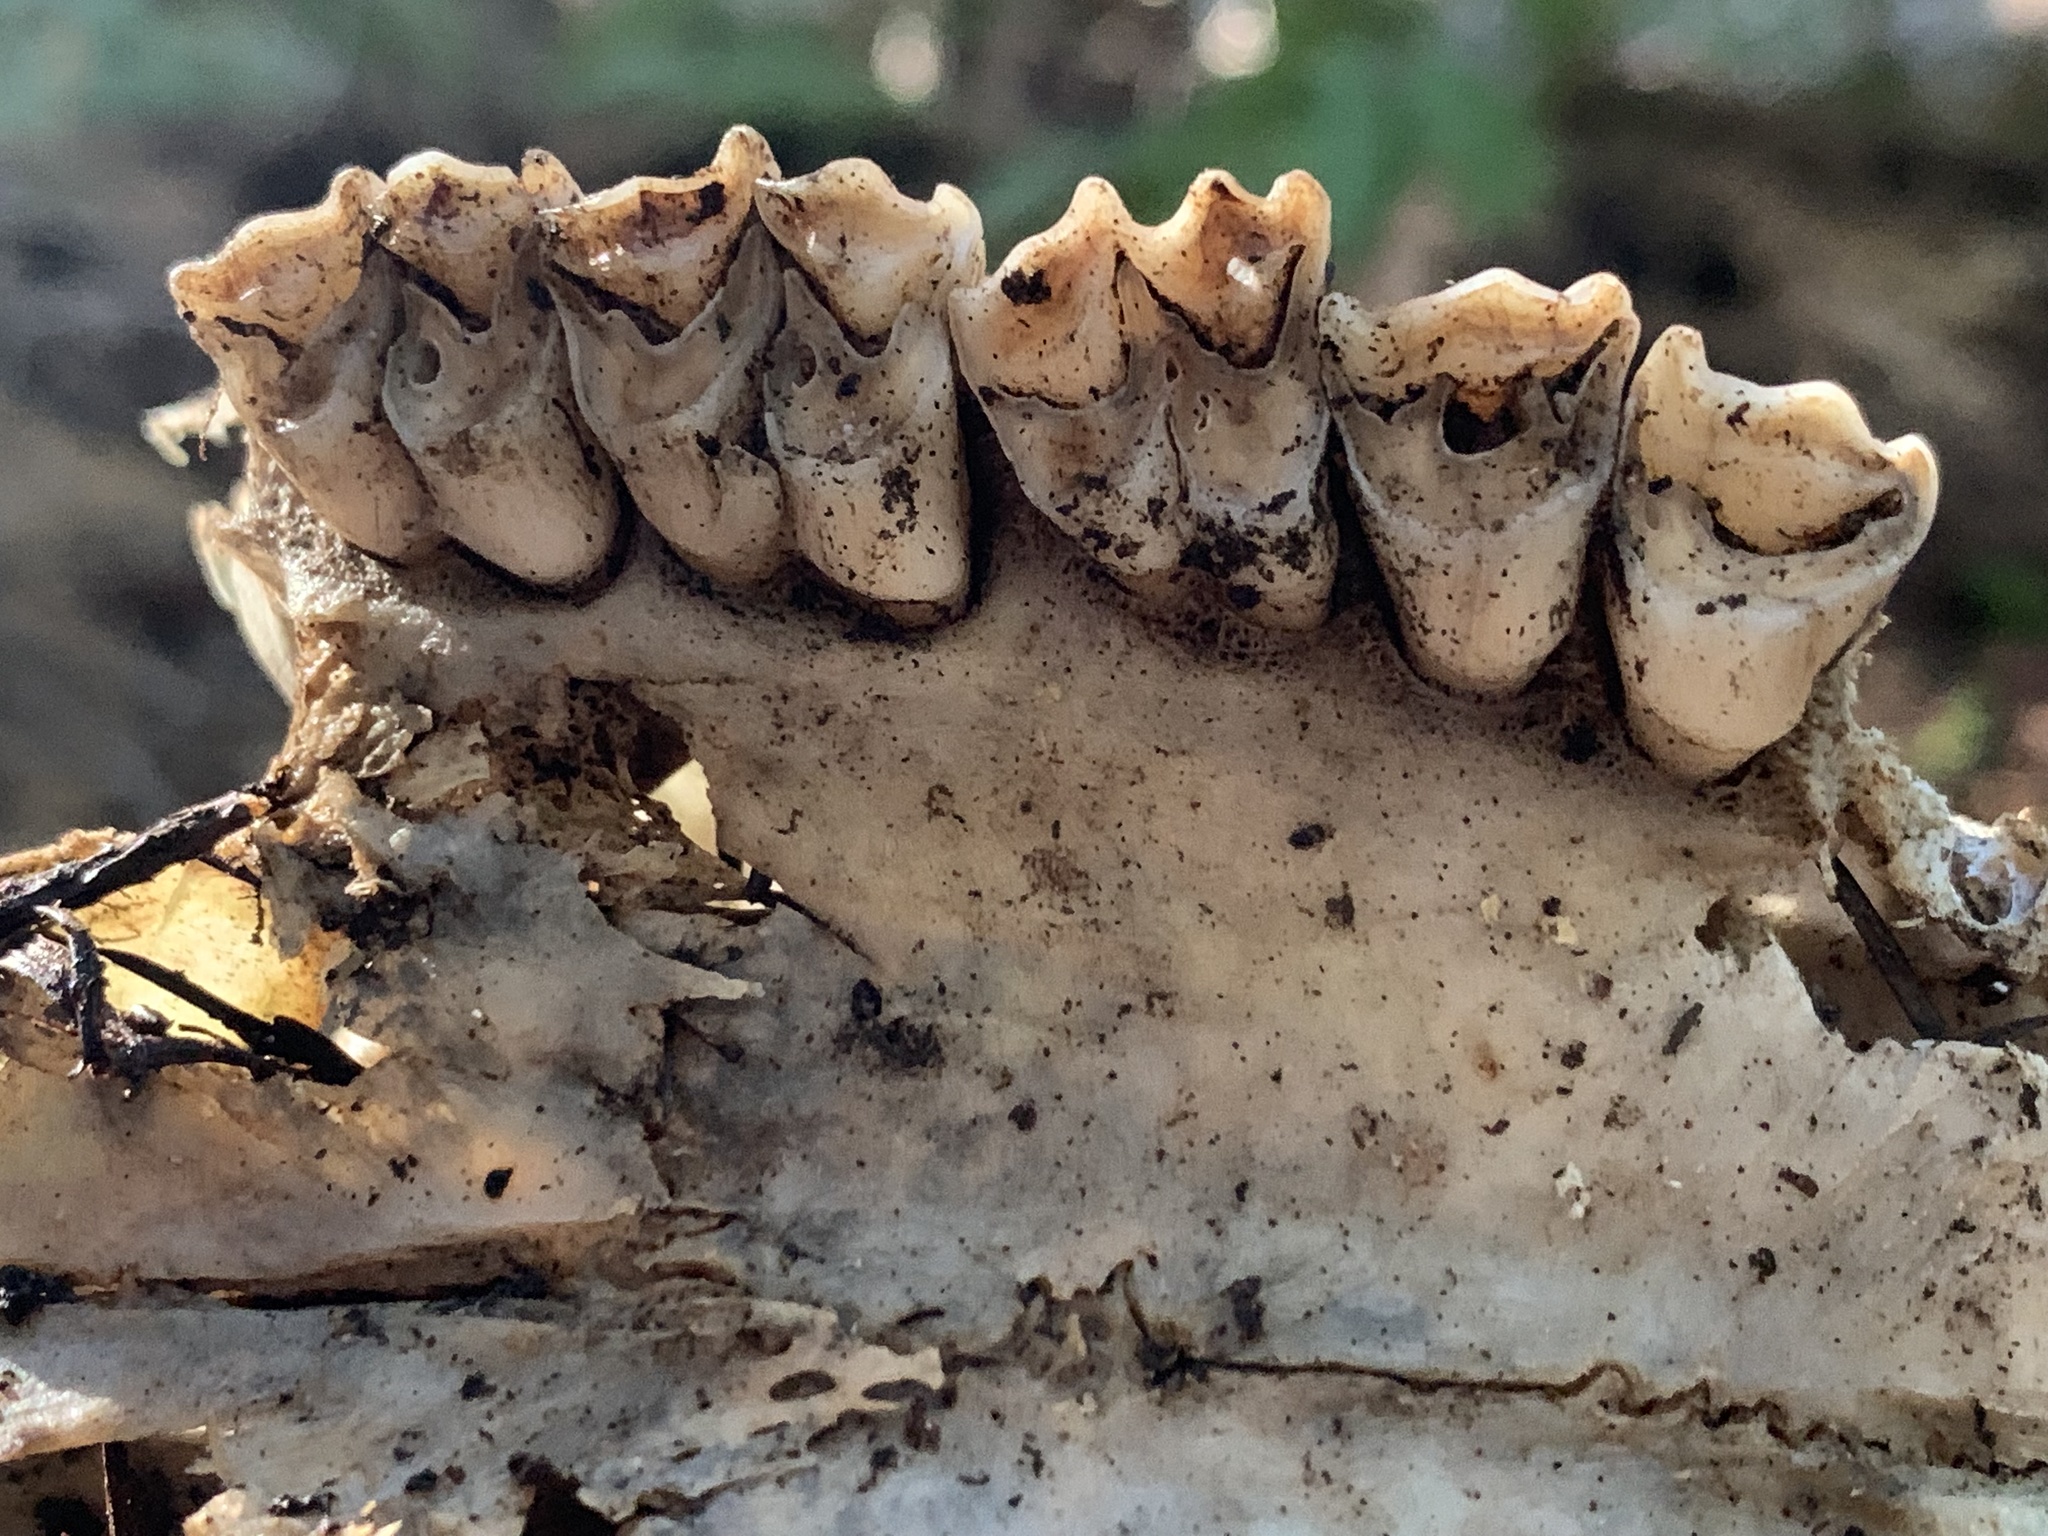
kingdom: Animalia
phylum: Chordata
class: Mammalia
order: Artiodactyla
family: Cervidae
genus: Odocoileus
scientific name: Odocoileus hemionus
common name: Mule deer
